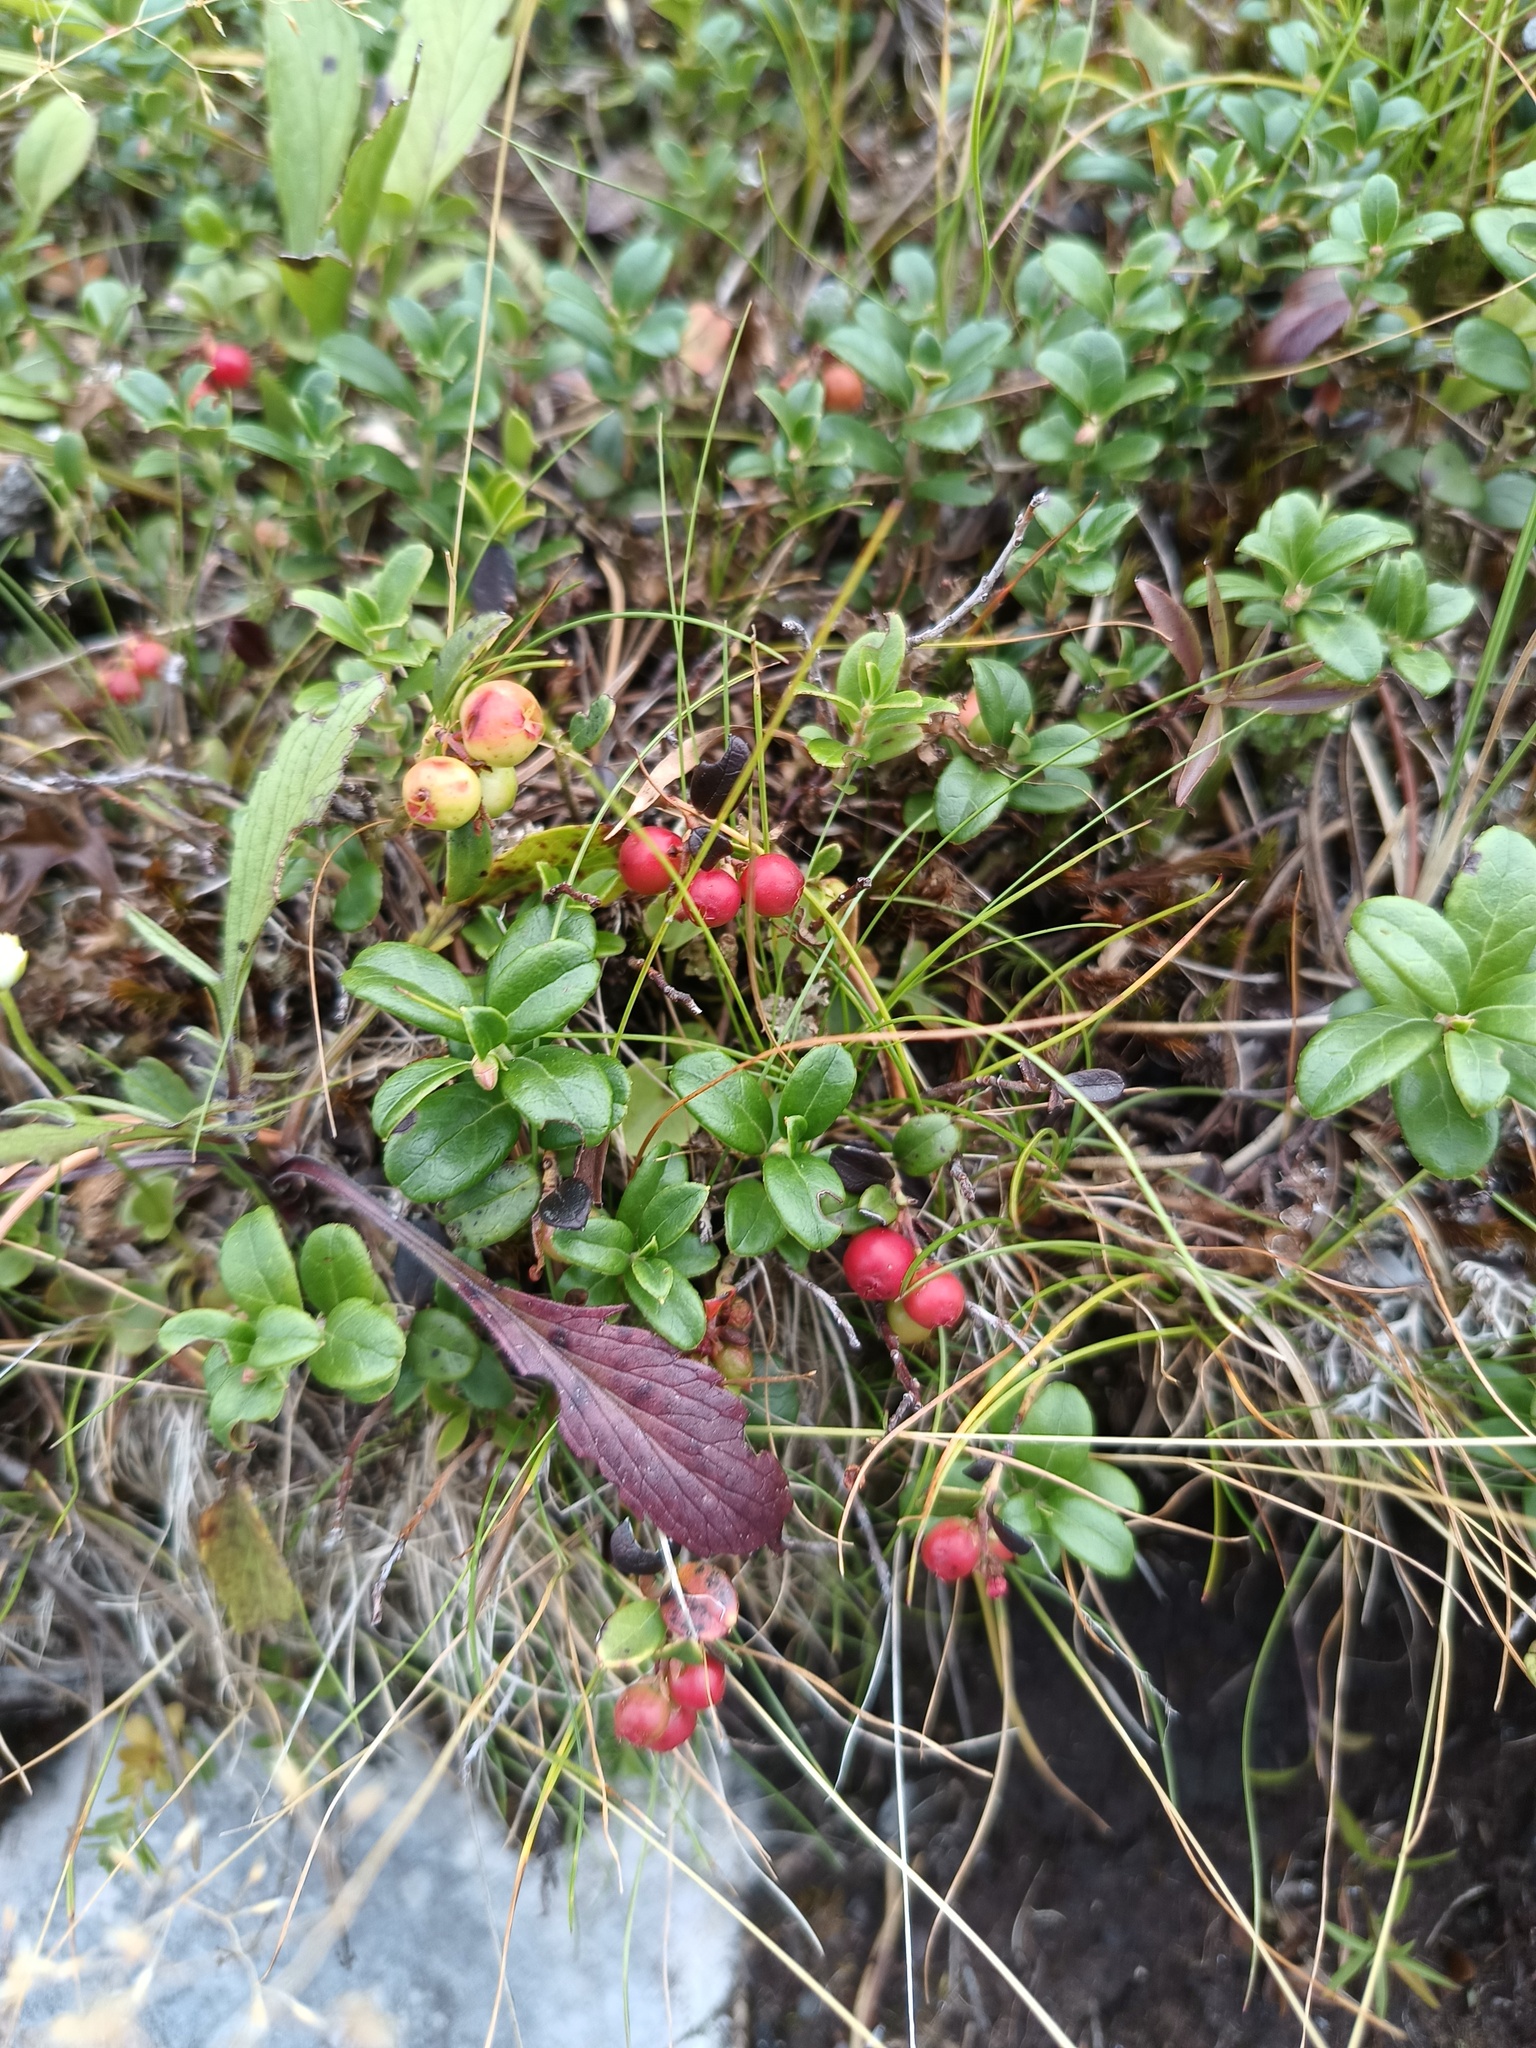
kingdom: Plantae
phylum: Tracheophyta
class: Magnoliopsida
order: Ericales
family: Ericaceae
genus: Vaccinium
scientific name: Vaccinium vitis-idaea
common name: Cowberry
